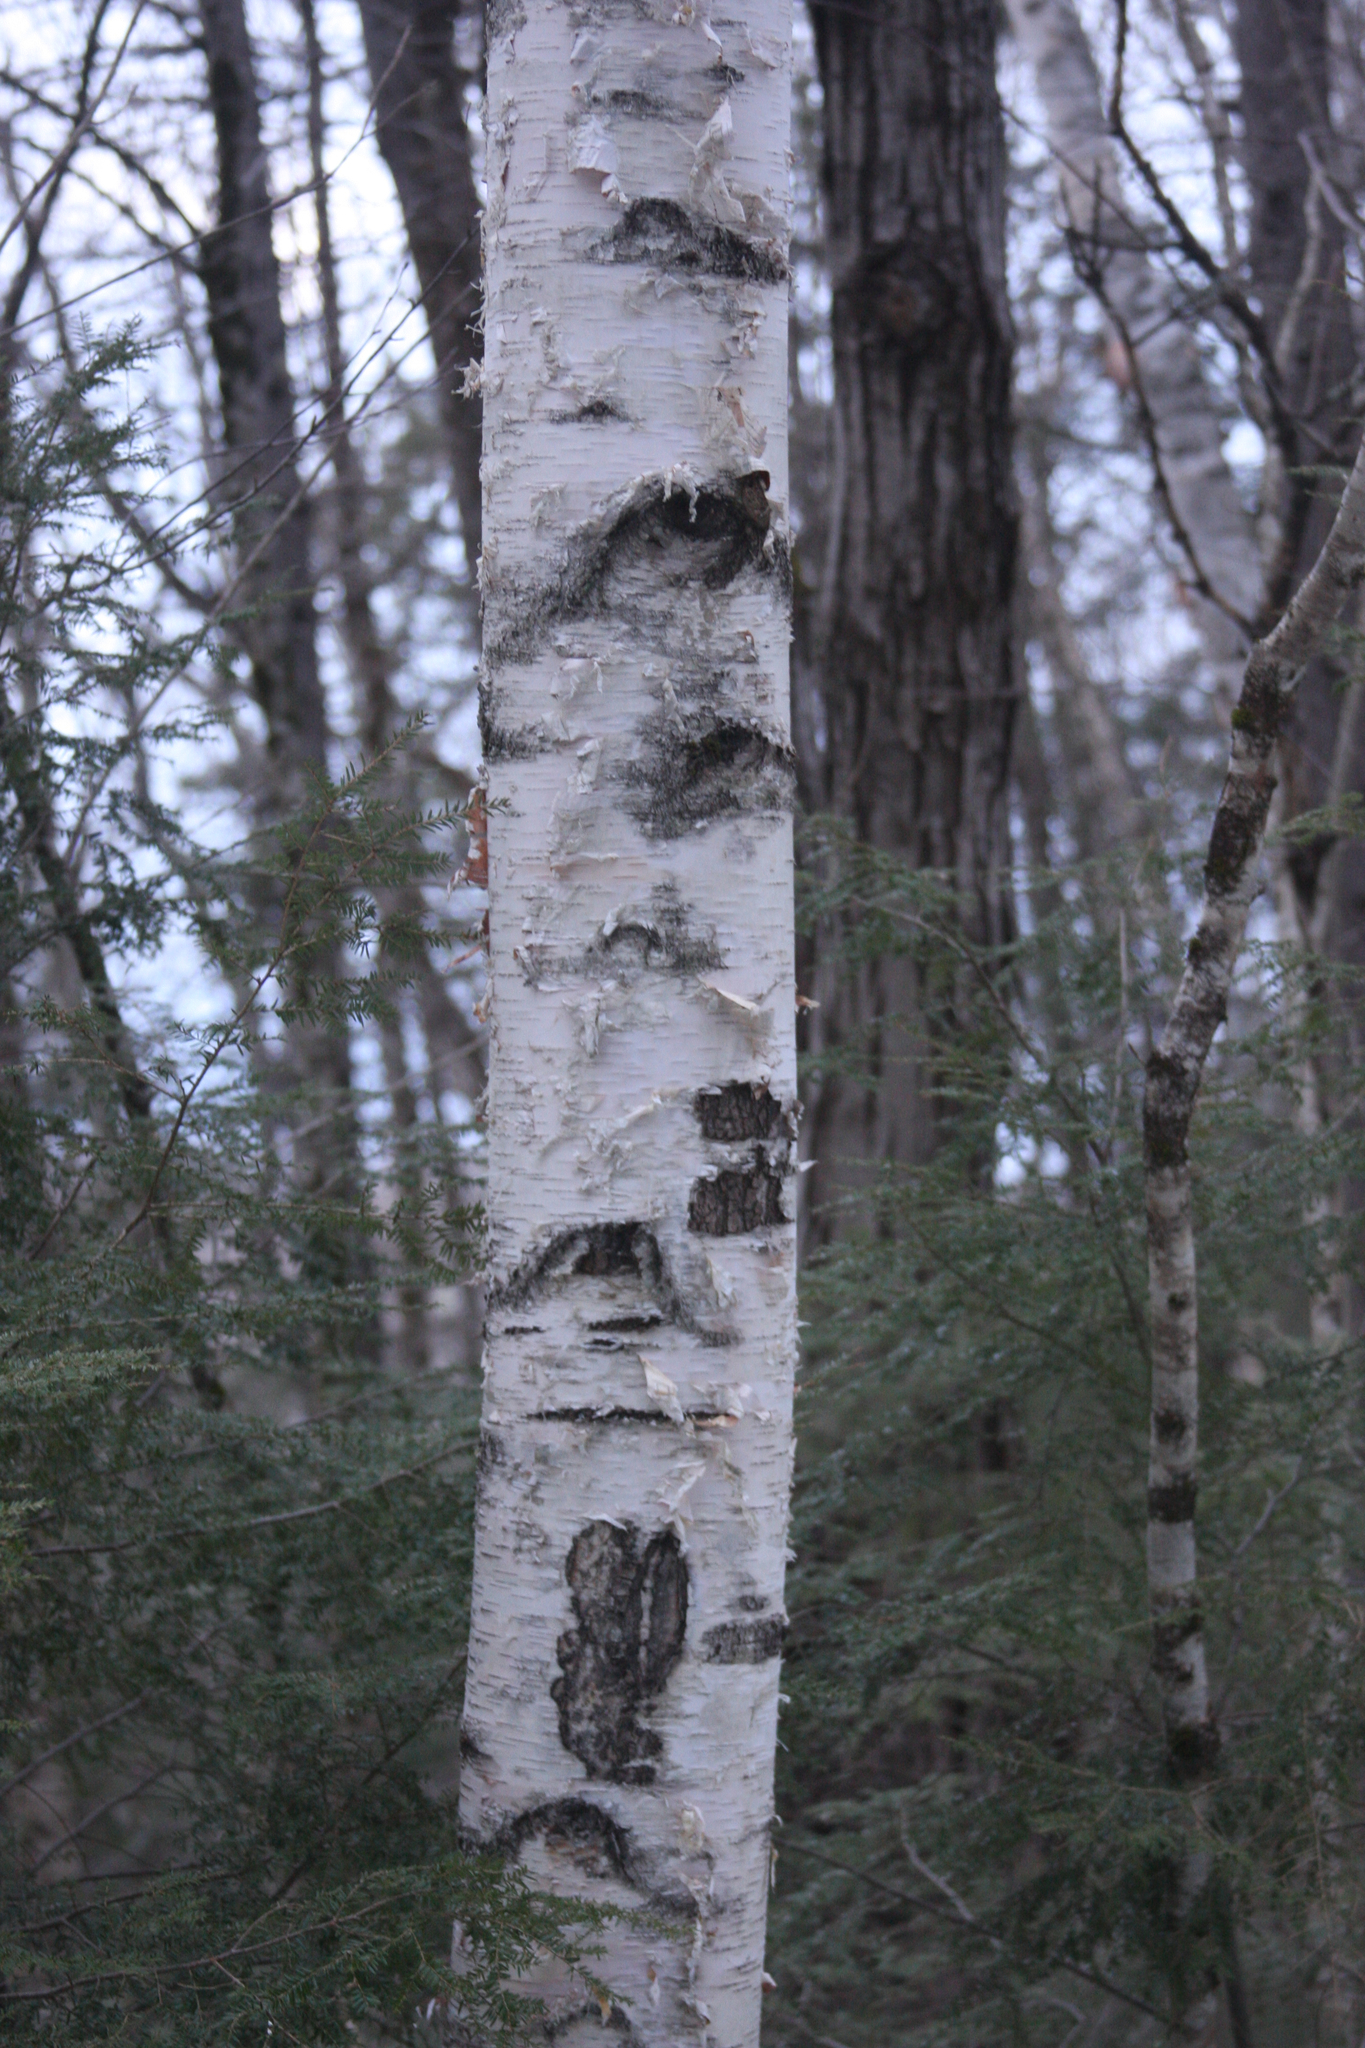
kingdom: Plantae
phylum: Tracheophyta
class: Magnoliopsida
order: Fagales
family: Betulaceae
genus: Betula
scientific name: Betula papyrifera
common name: Paper birch
